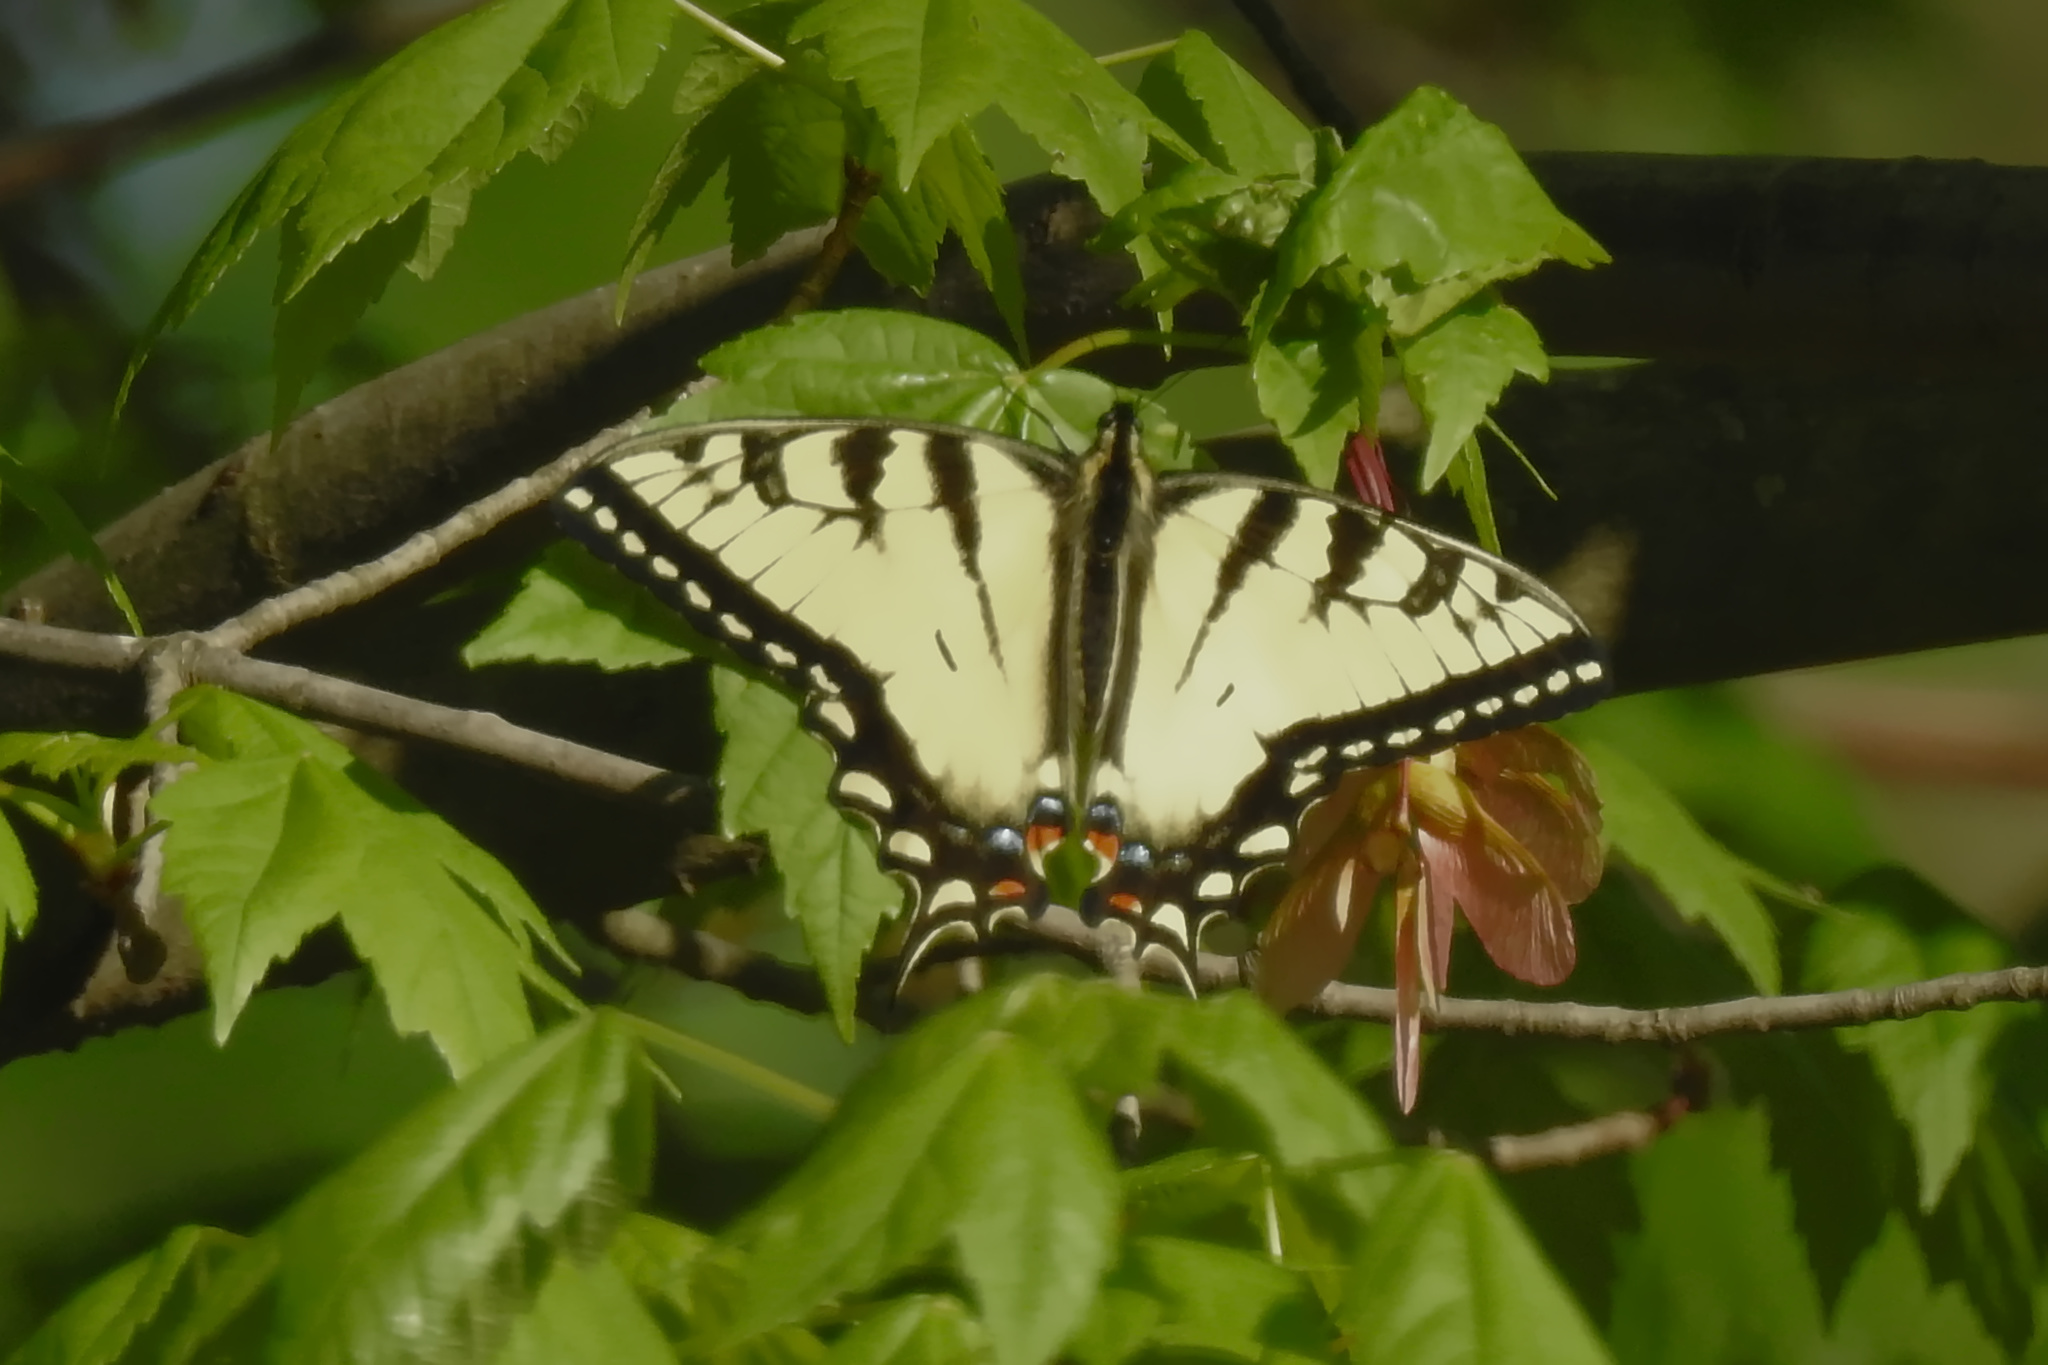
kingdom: Animalia
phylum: Arthropoda
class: Insecta
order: Lepidoptera
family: Papilionidae
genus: Papilio
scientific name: Papilio glaucus
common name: Tiger swallowtail
